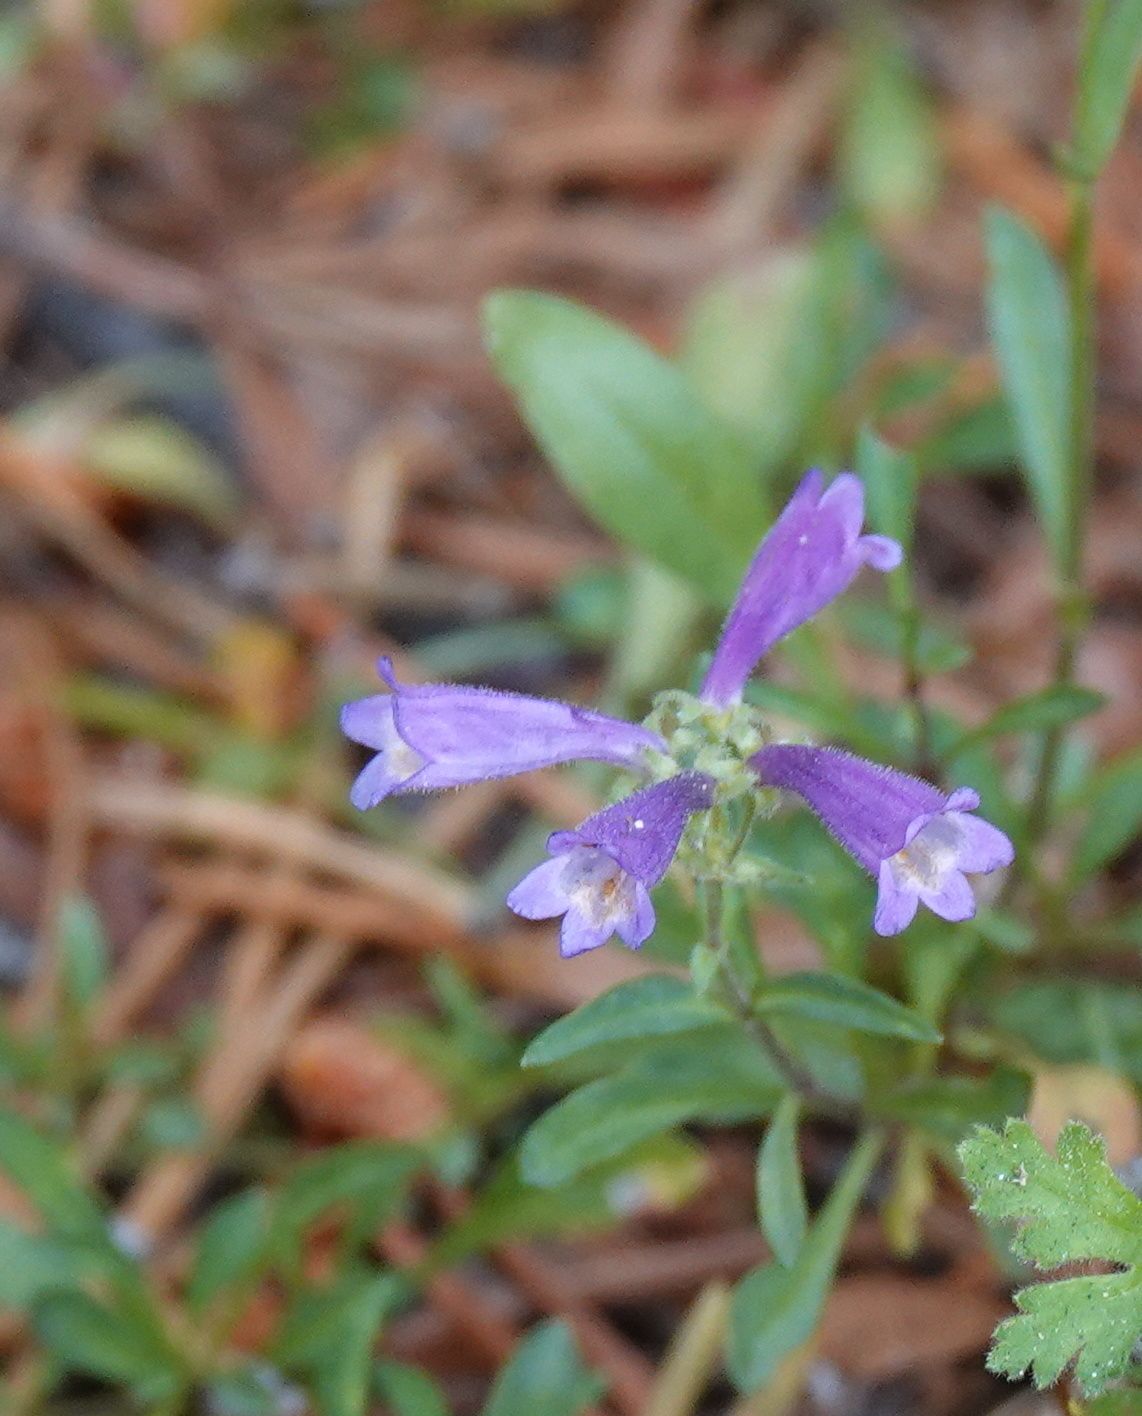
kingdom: Plantae
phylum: Tracheophyta
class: Magnoliopsida
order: Lamiales
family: Plantaginaceae
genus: Penstemon
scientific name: Penstemon heterodoxus
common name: Sierran penstemon
